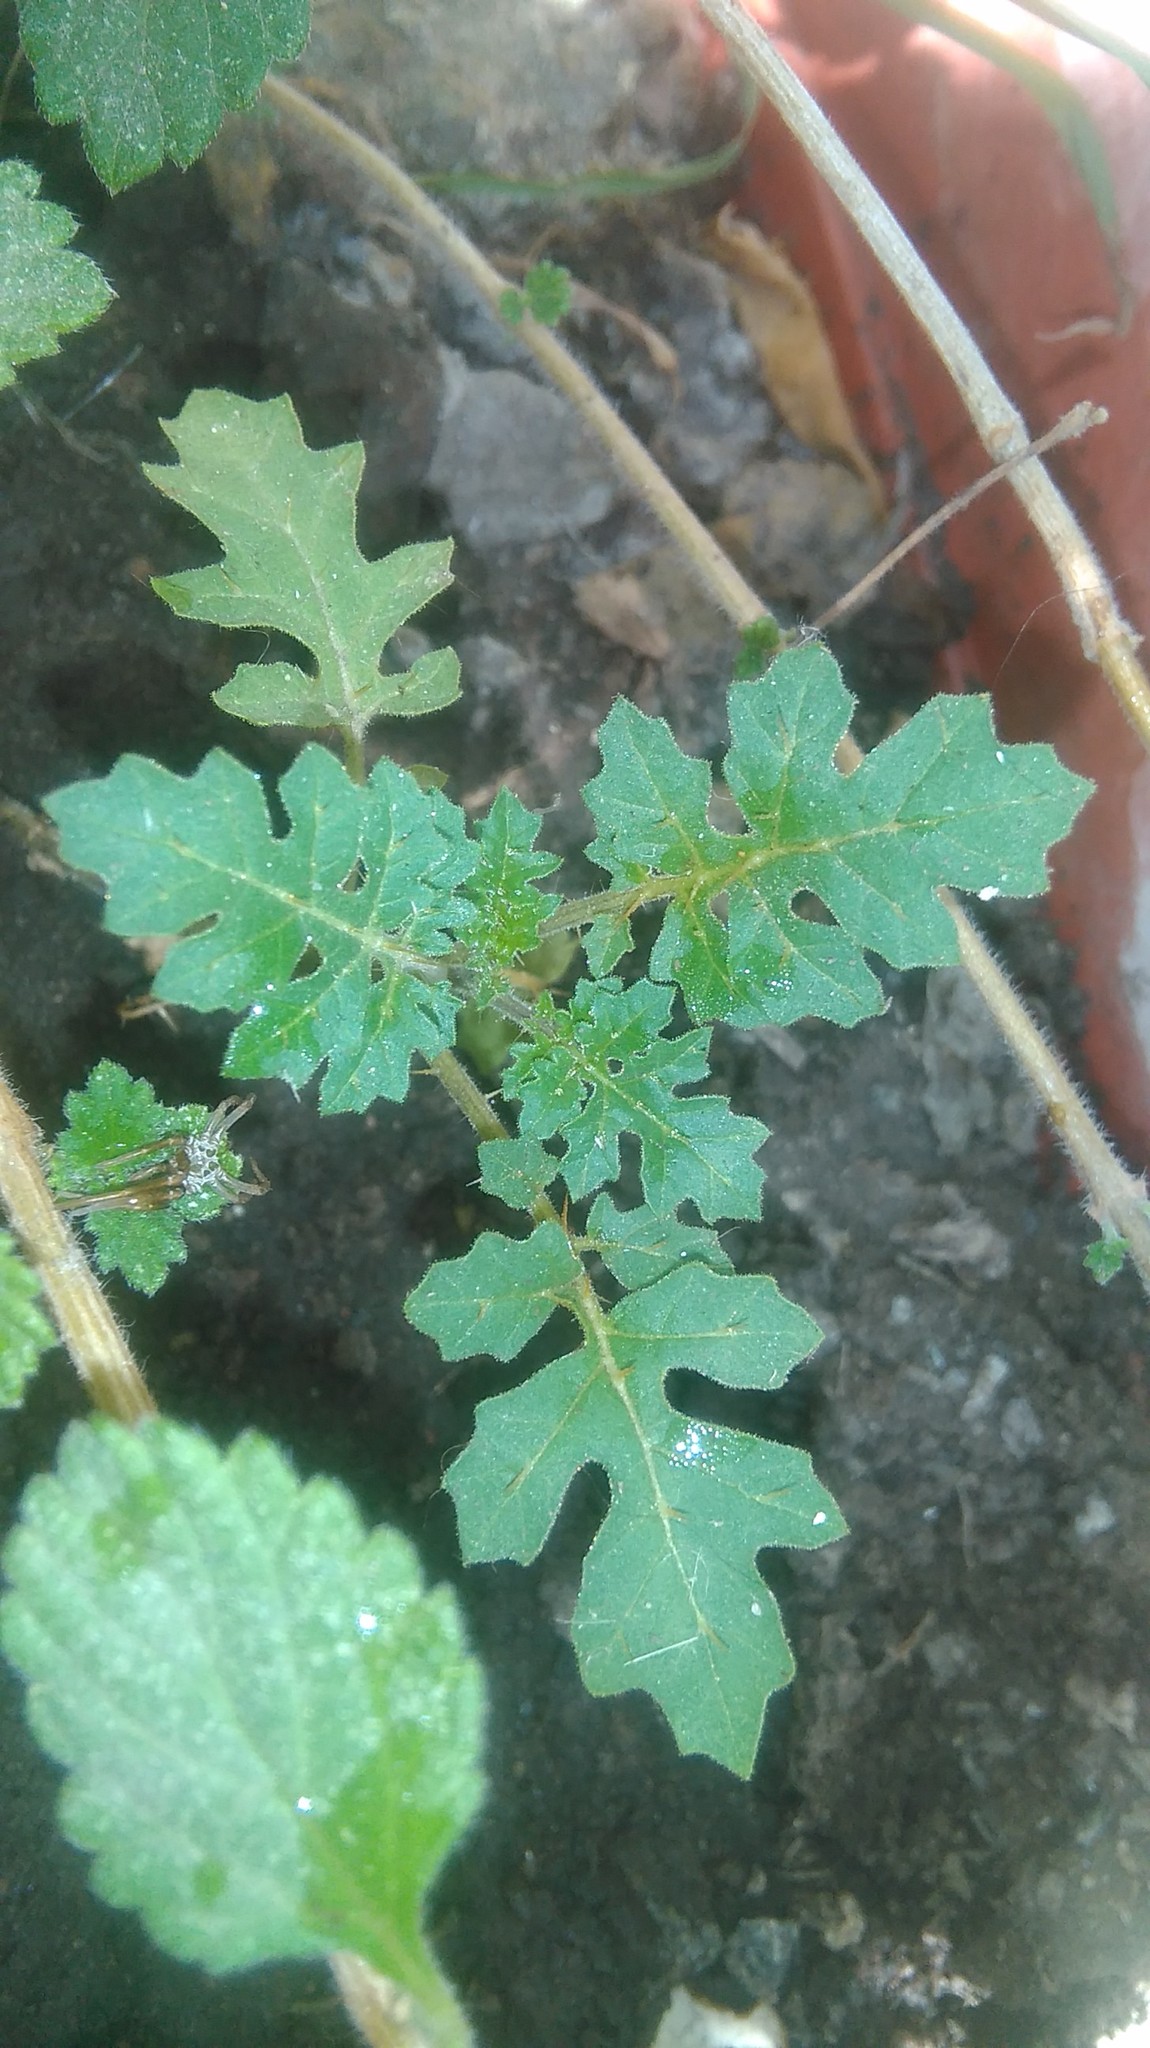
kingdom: Plantae
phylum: Tracheophyta
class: Magnoliopsida
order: Solanales
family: Solanaceae
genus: Solanum
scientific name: Solanum sisymbriifolium
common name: Red buffalo-bur
